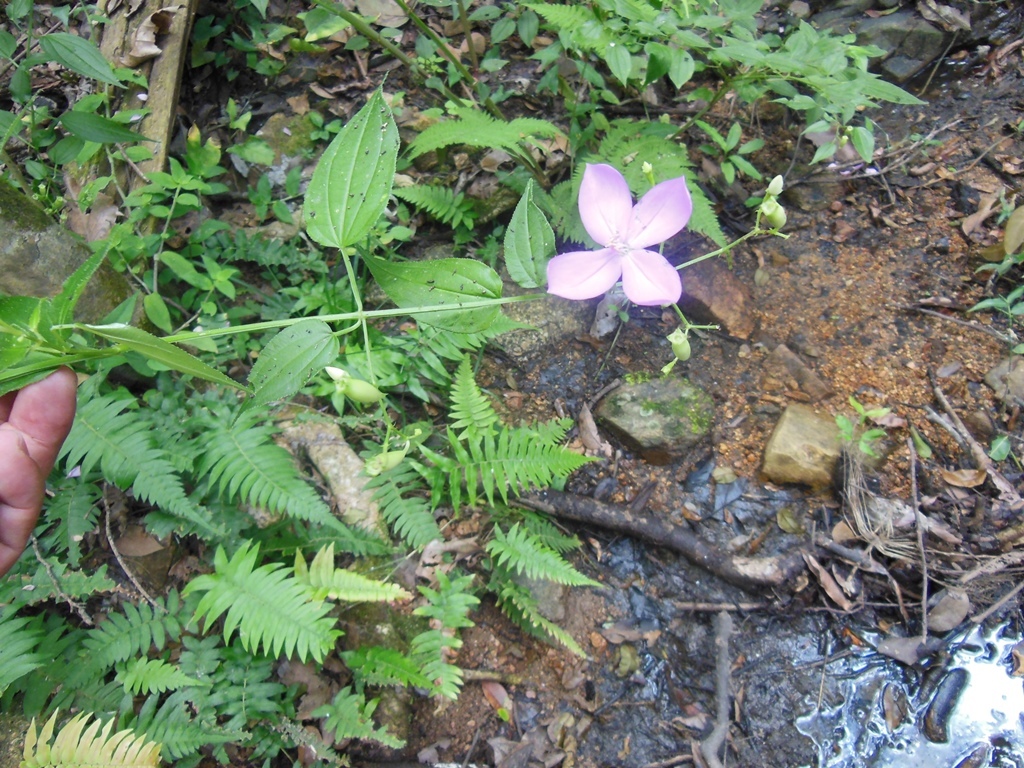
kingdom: Plantae
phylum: Tracheophyta
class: Magnoliopsida
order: Myrtales
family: Melastomataceae
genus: Arthrostemma
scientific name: Arthrostemma ciliatum
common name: Everblooming eavender
